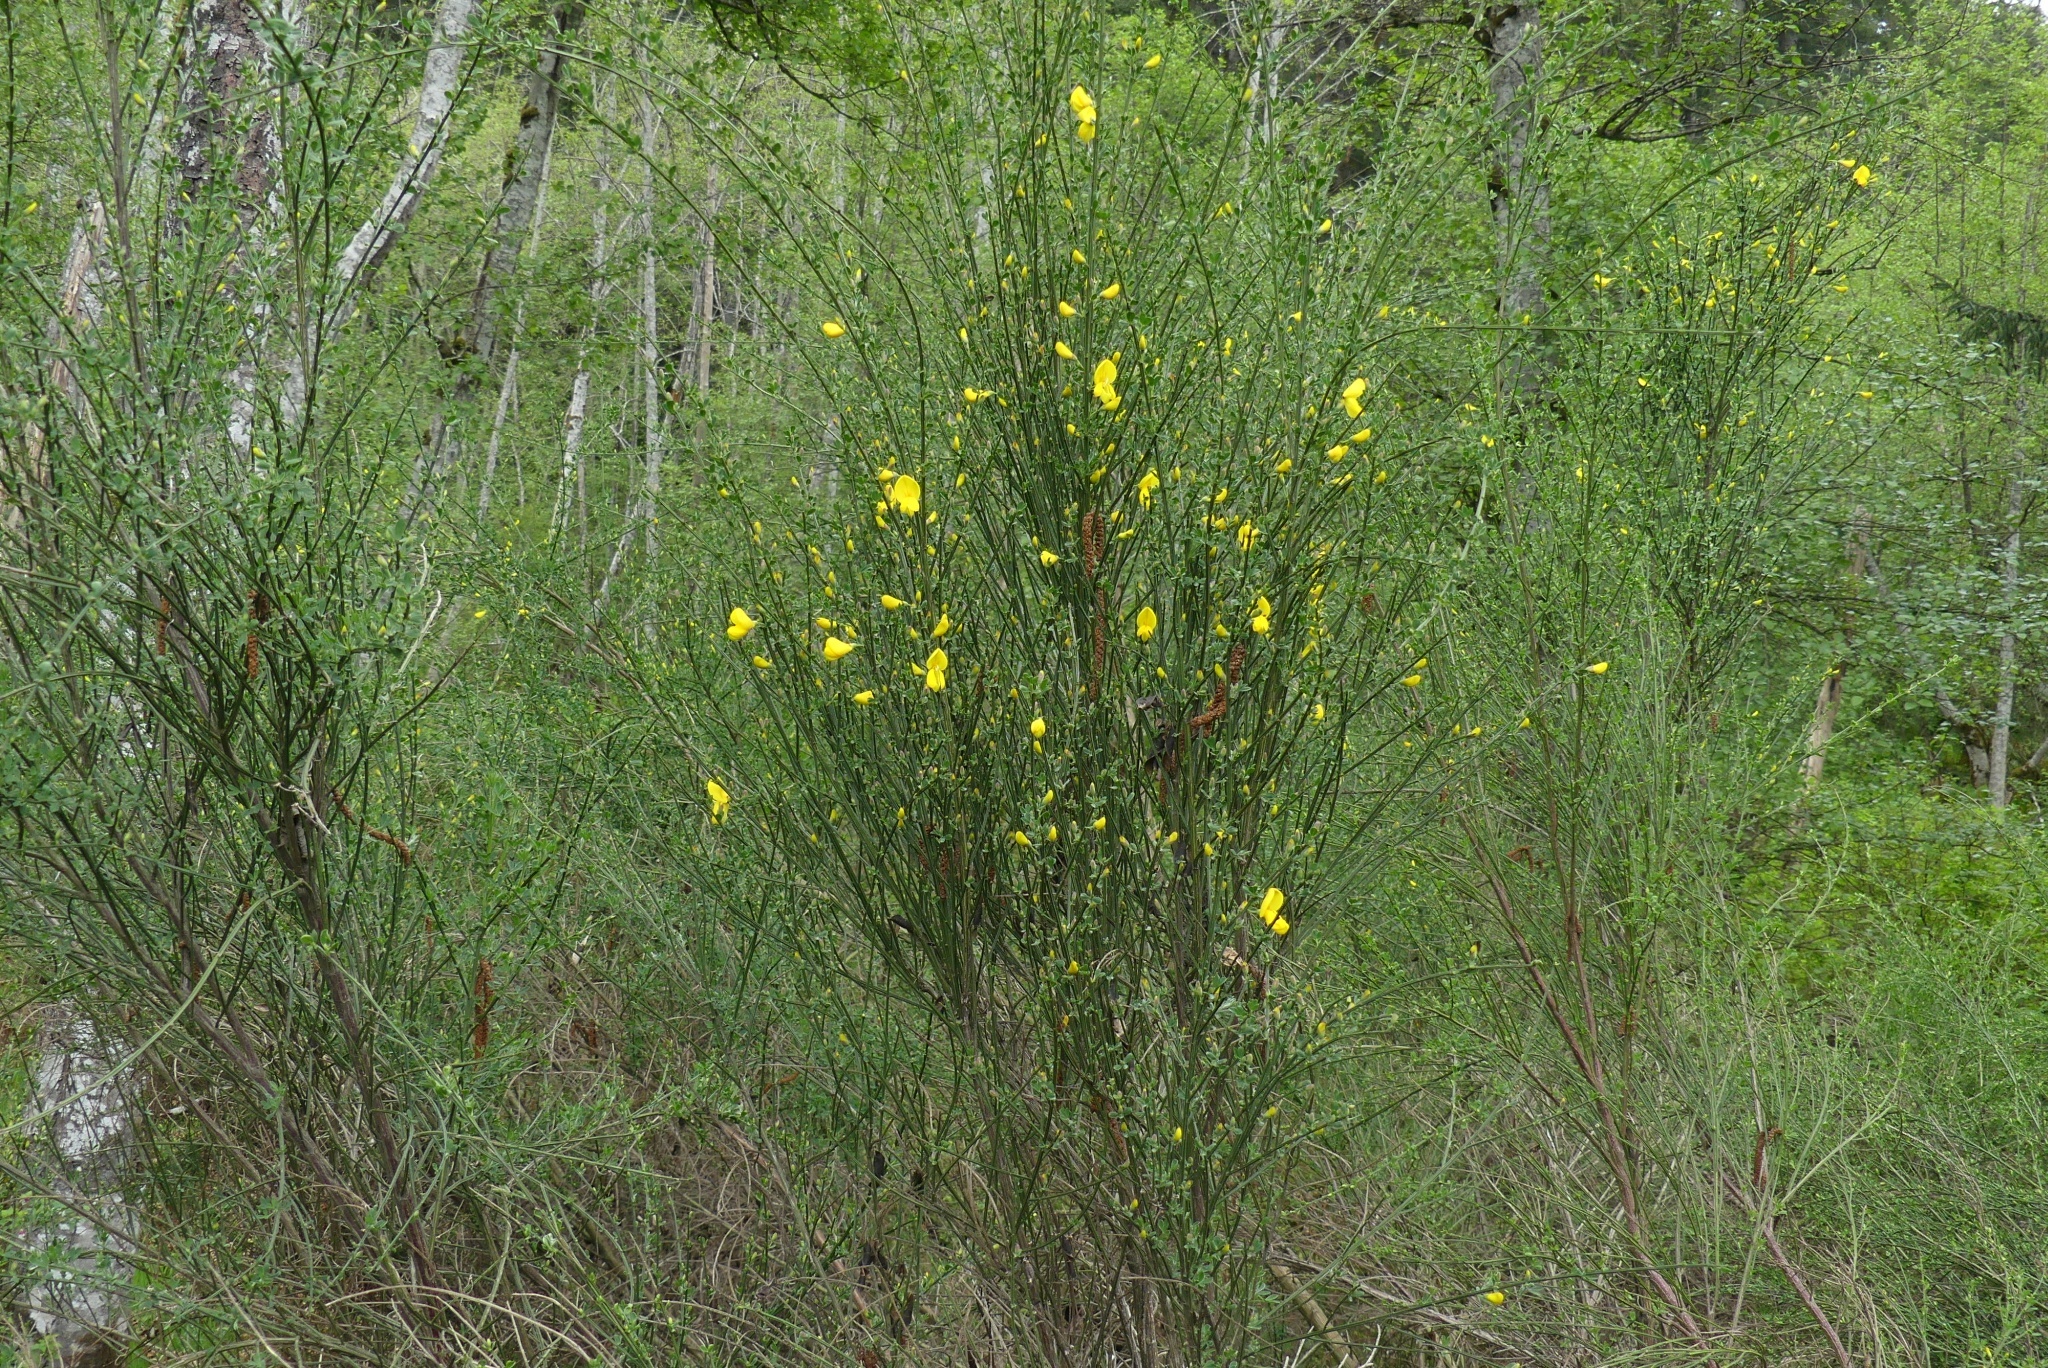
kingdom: Plantae
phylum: Tracheophyta
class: Magnoliopsida
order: Fabales
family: Fabaceae
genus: Cytisus
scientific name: Cytisus scoparius
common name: Scotch broom
